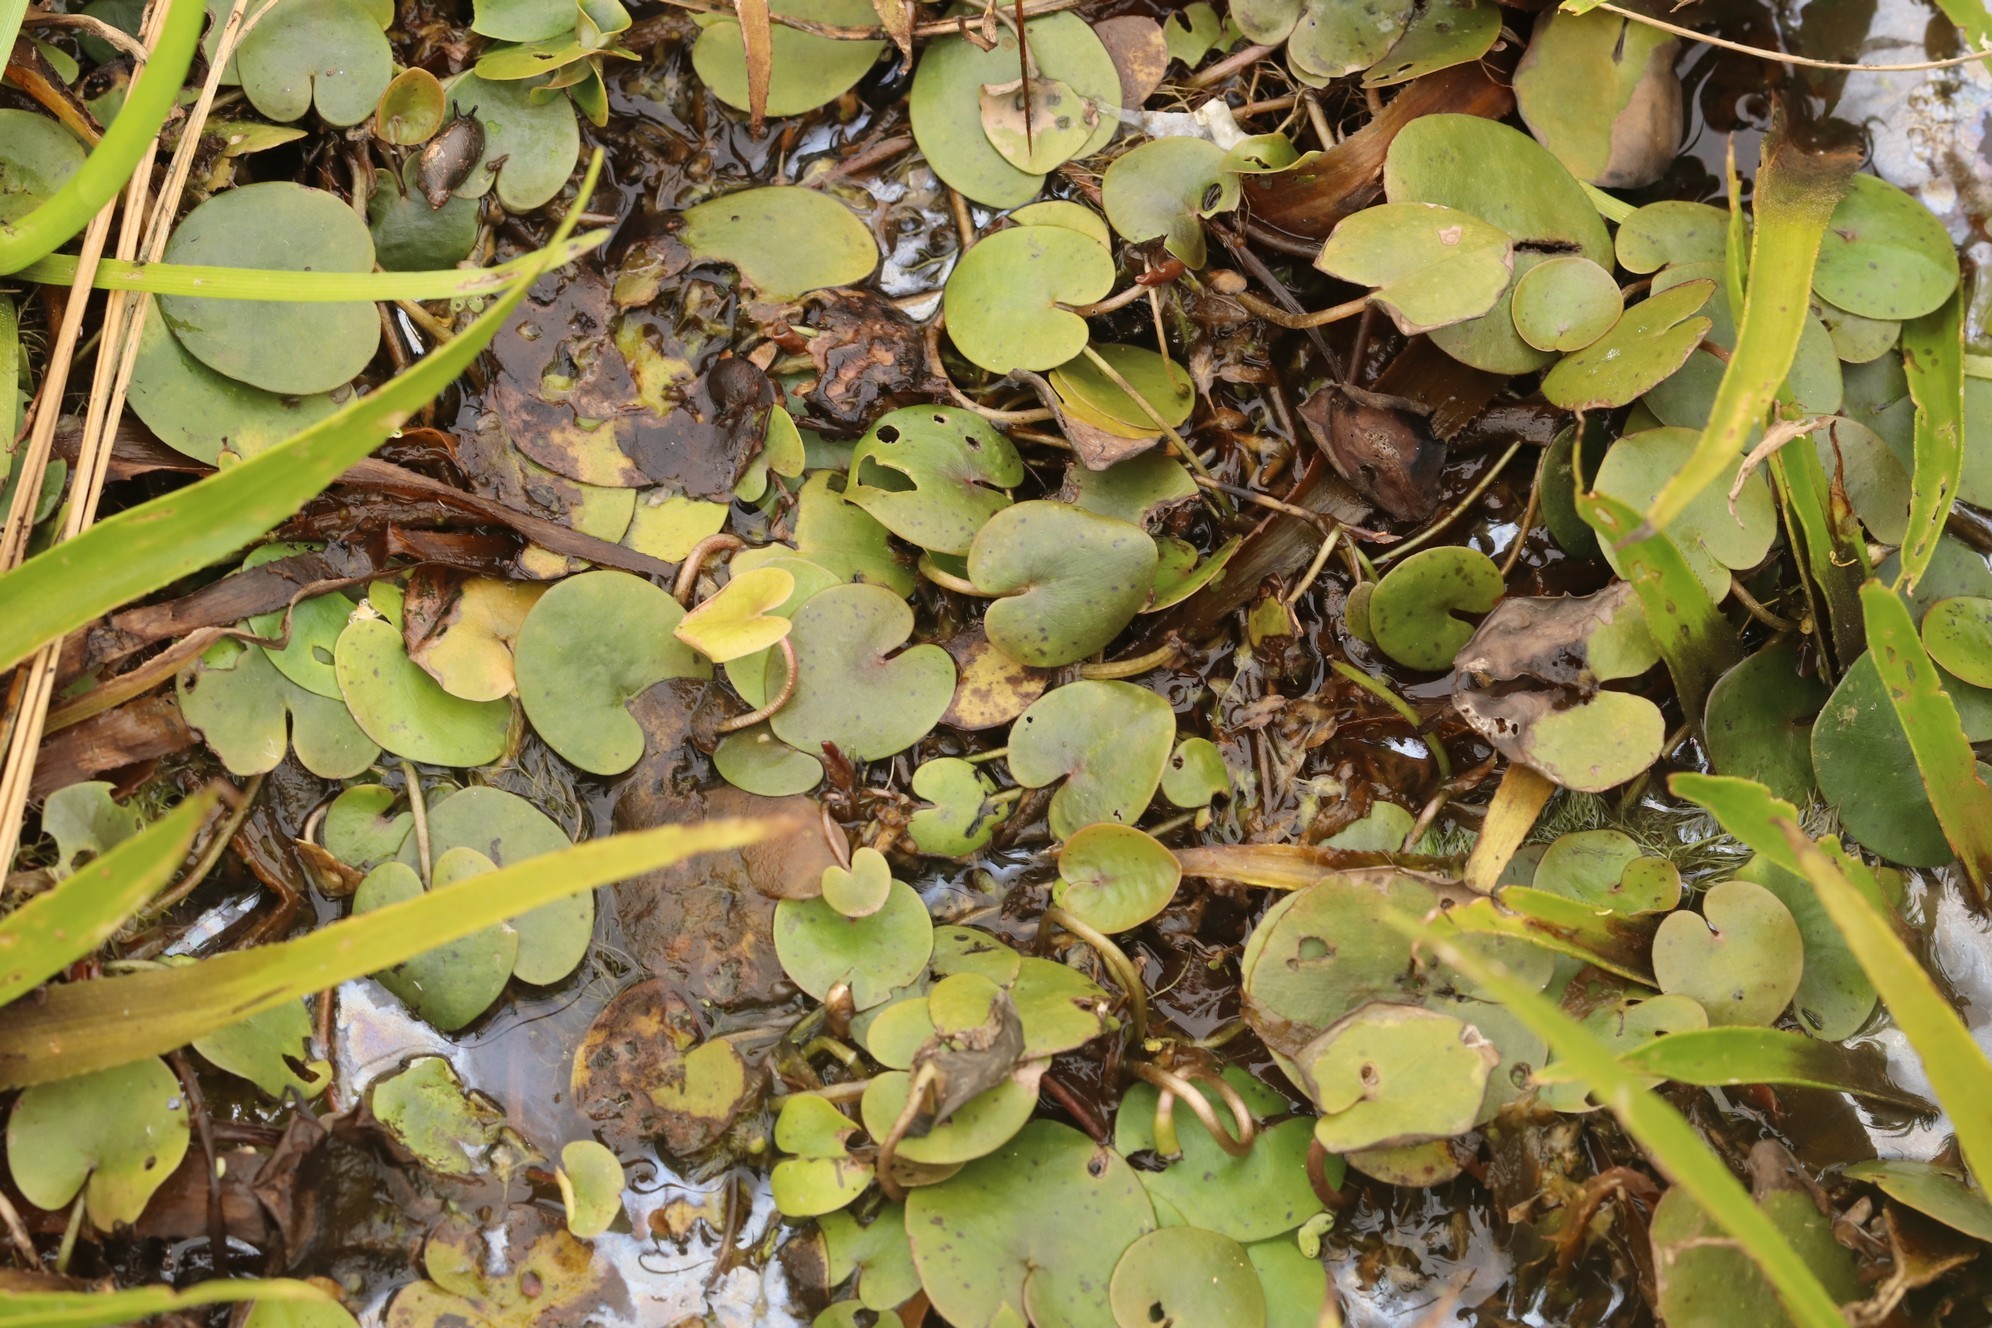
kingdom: Plantae
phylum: Tracheophyta
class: Liliopsida
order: Alismatales
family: Hydrocharitaceae
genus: Hydrocharis
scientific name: Hydrocharis morsus-ranae
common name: Frogbit
